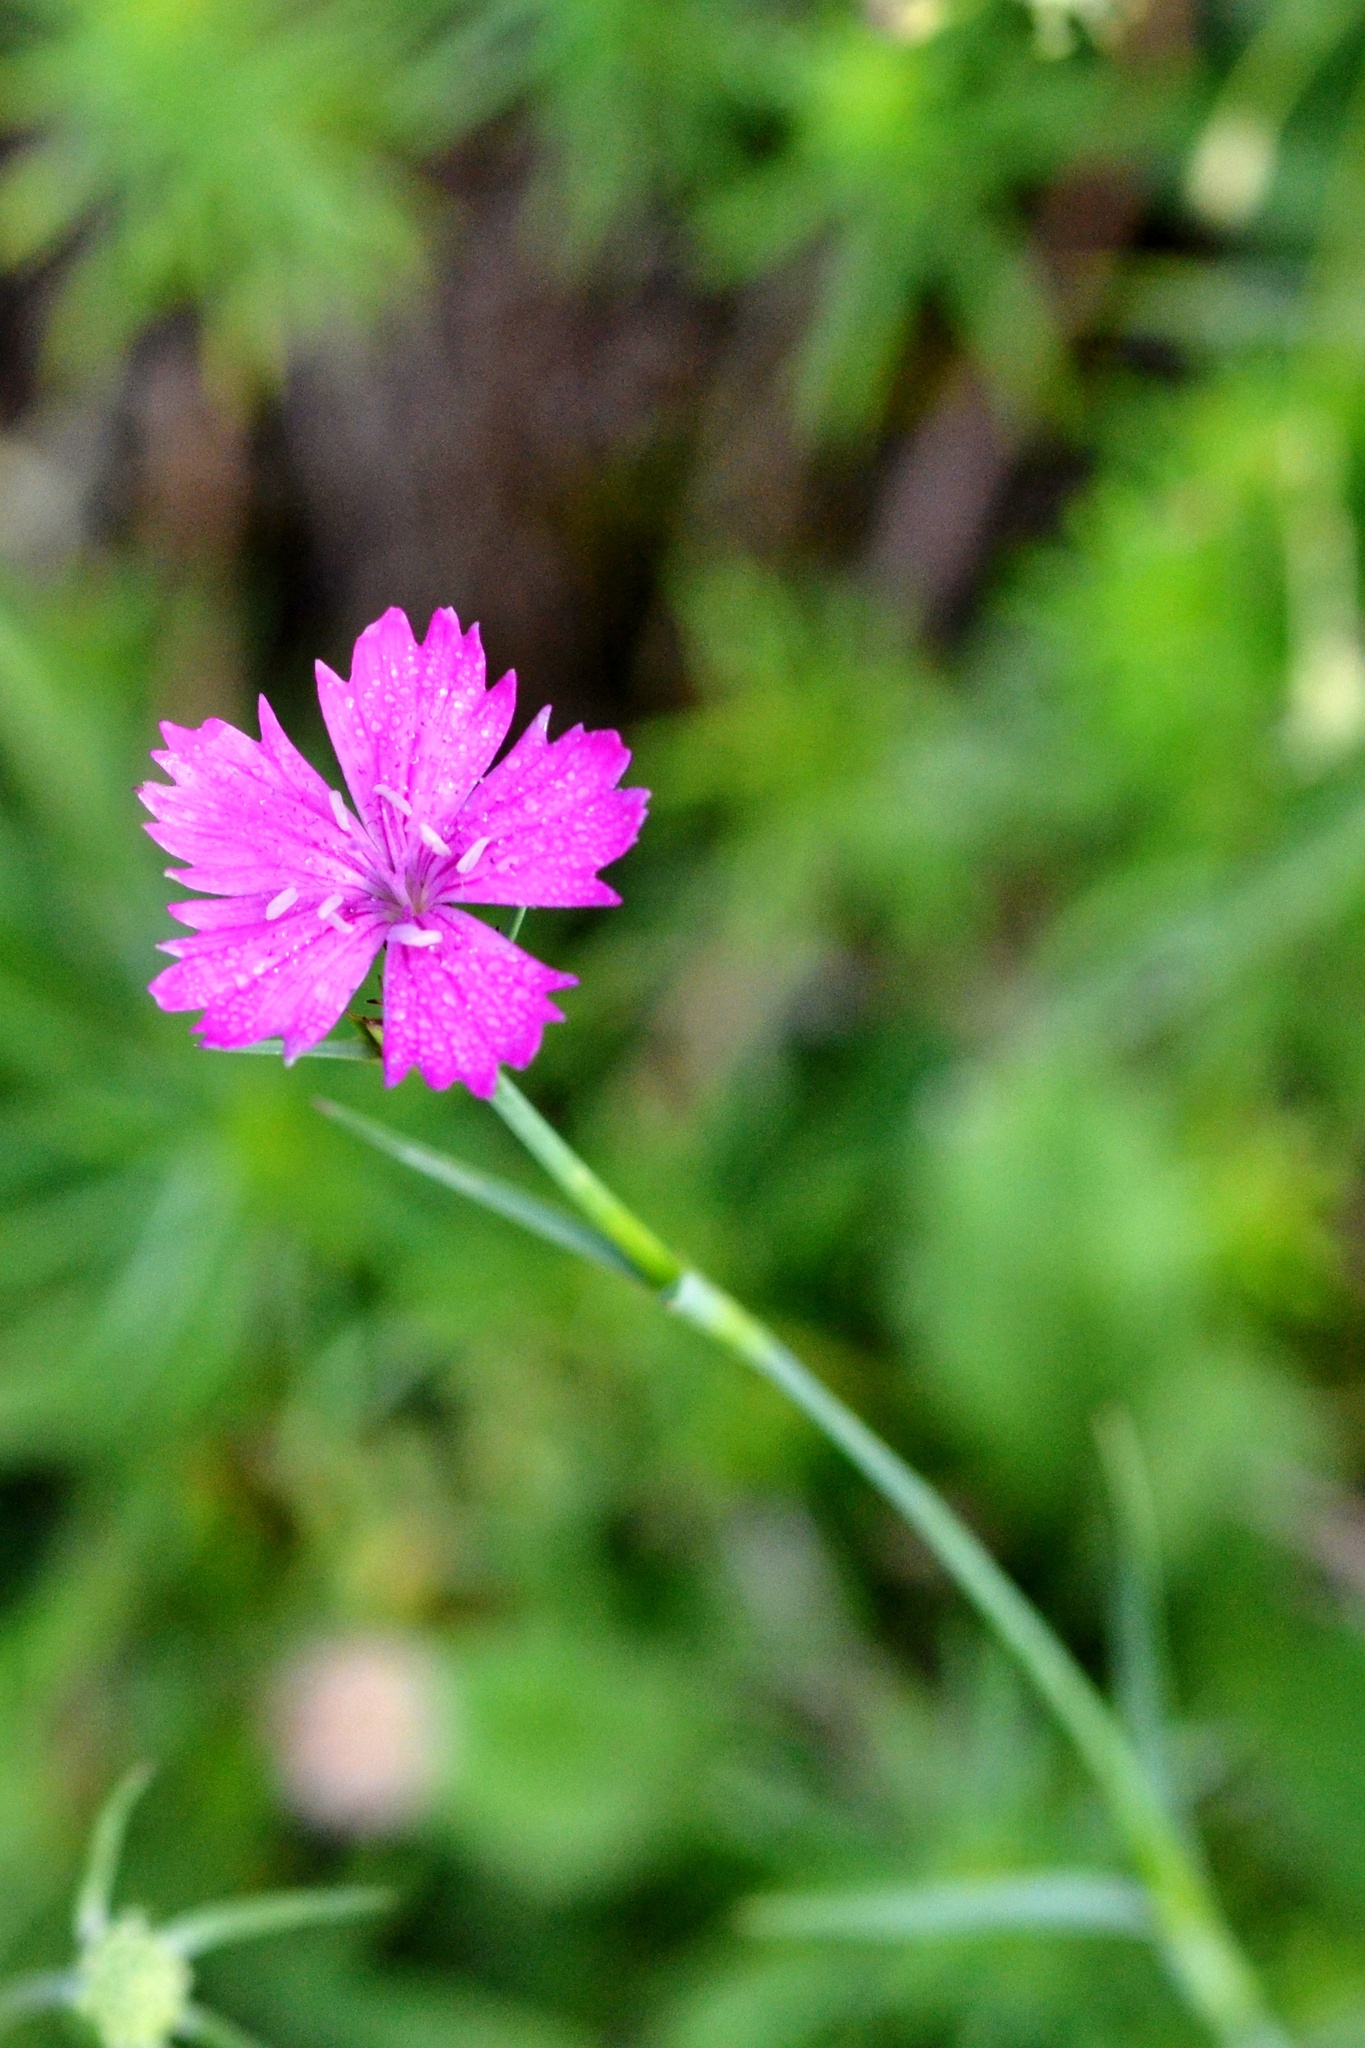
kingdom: Plantae
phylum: Tracheophyta
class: Magnoliopsida
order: Caryophyllales
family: Caryophyllaceae
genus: Dianthus
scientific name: Dianthus carthusianorum
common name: Carthusian pink
